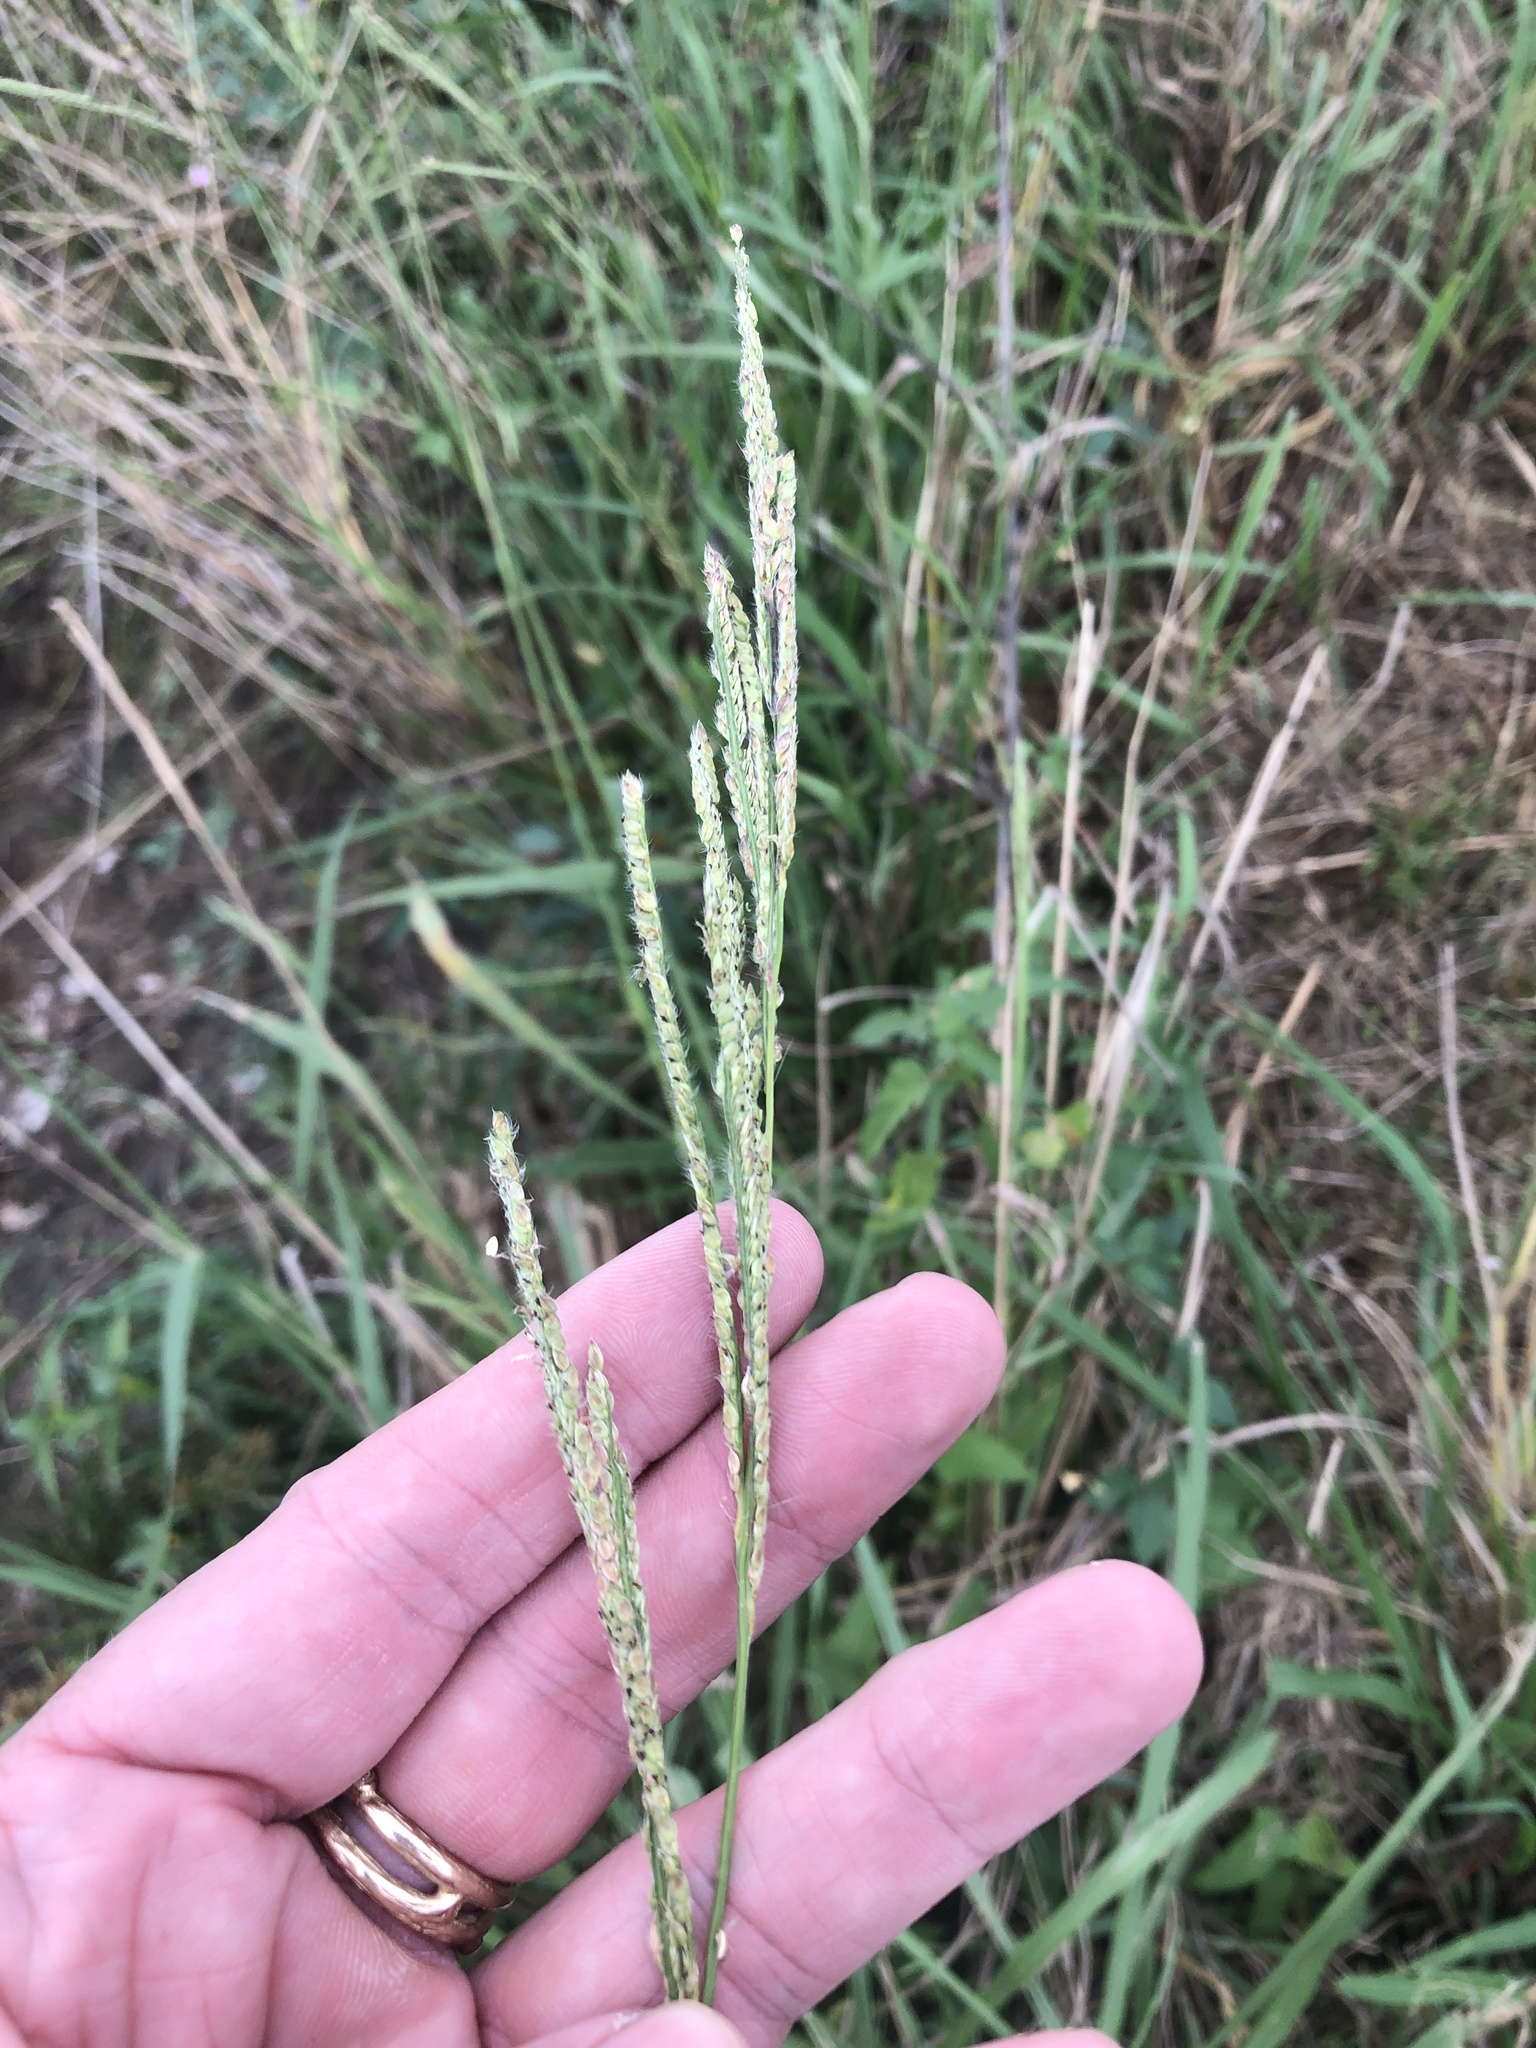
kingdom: Plantae
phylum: Tracheophyta
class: Liliopsida
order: Poales
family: Poaceae
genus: Paspalum
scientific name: Paspalum urvillei
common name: Vasey's grass
